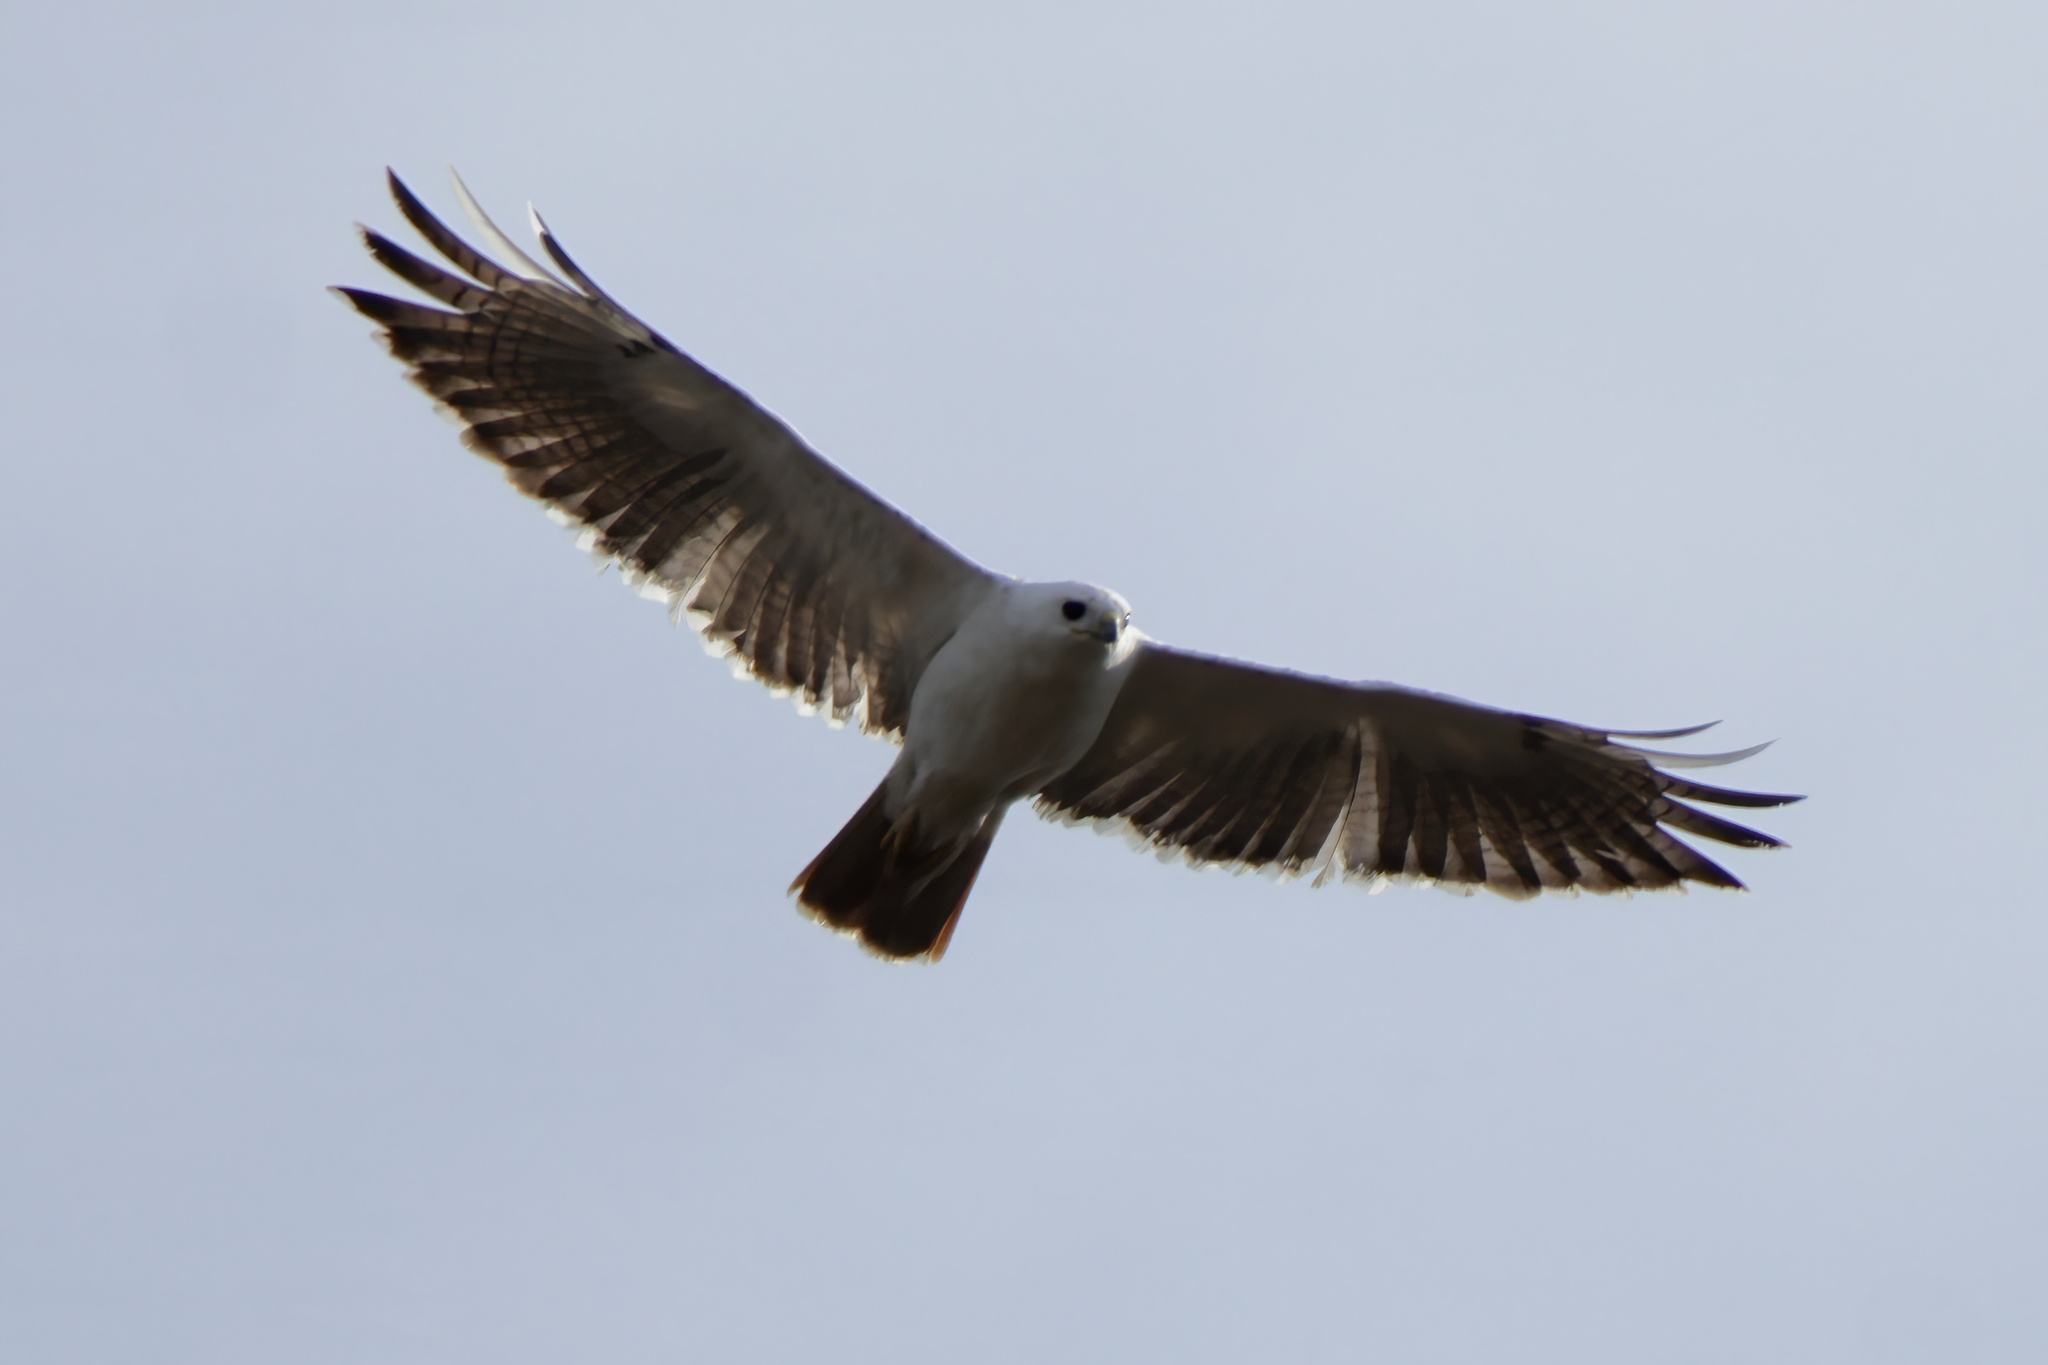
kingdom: Animalia
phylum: Chordata
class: Aves
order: Accipitriformes
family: Accipitridae
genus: Buteo
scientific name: Buteo jamaicensis
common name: Red-tailed hawk
